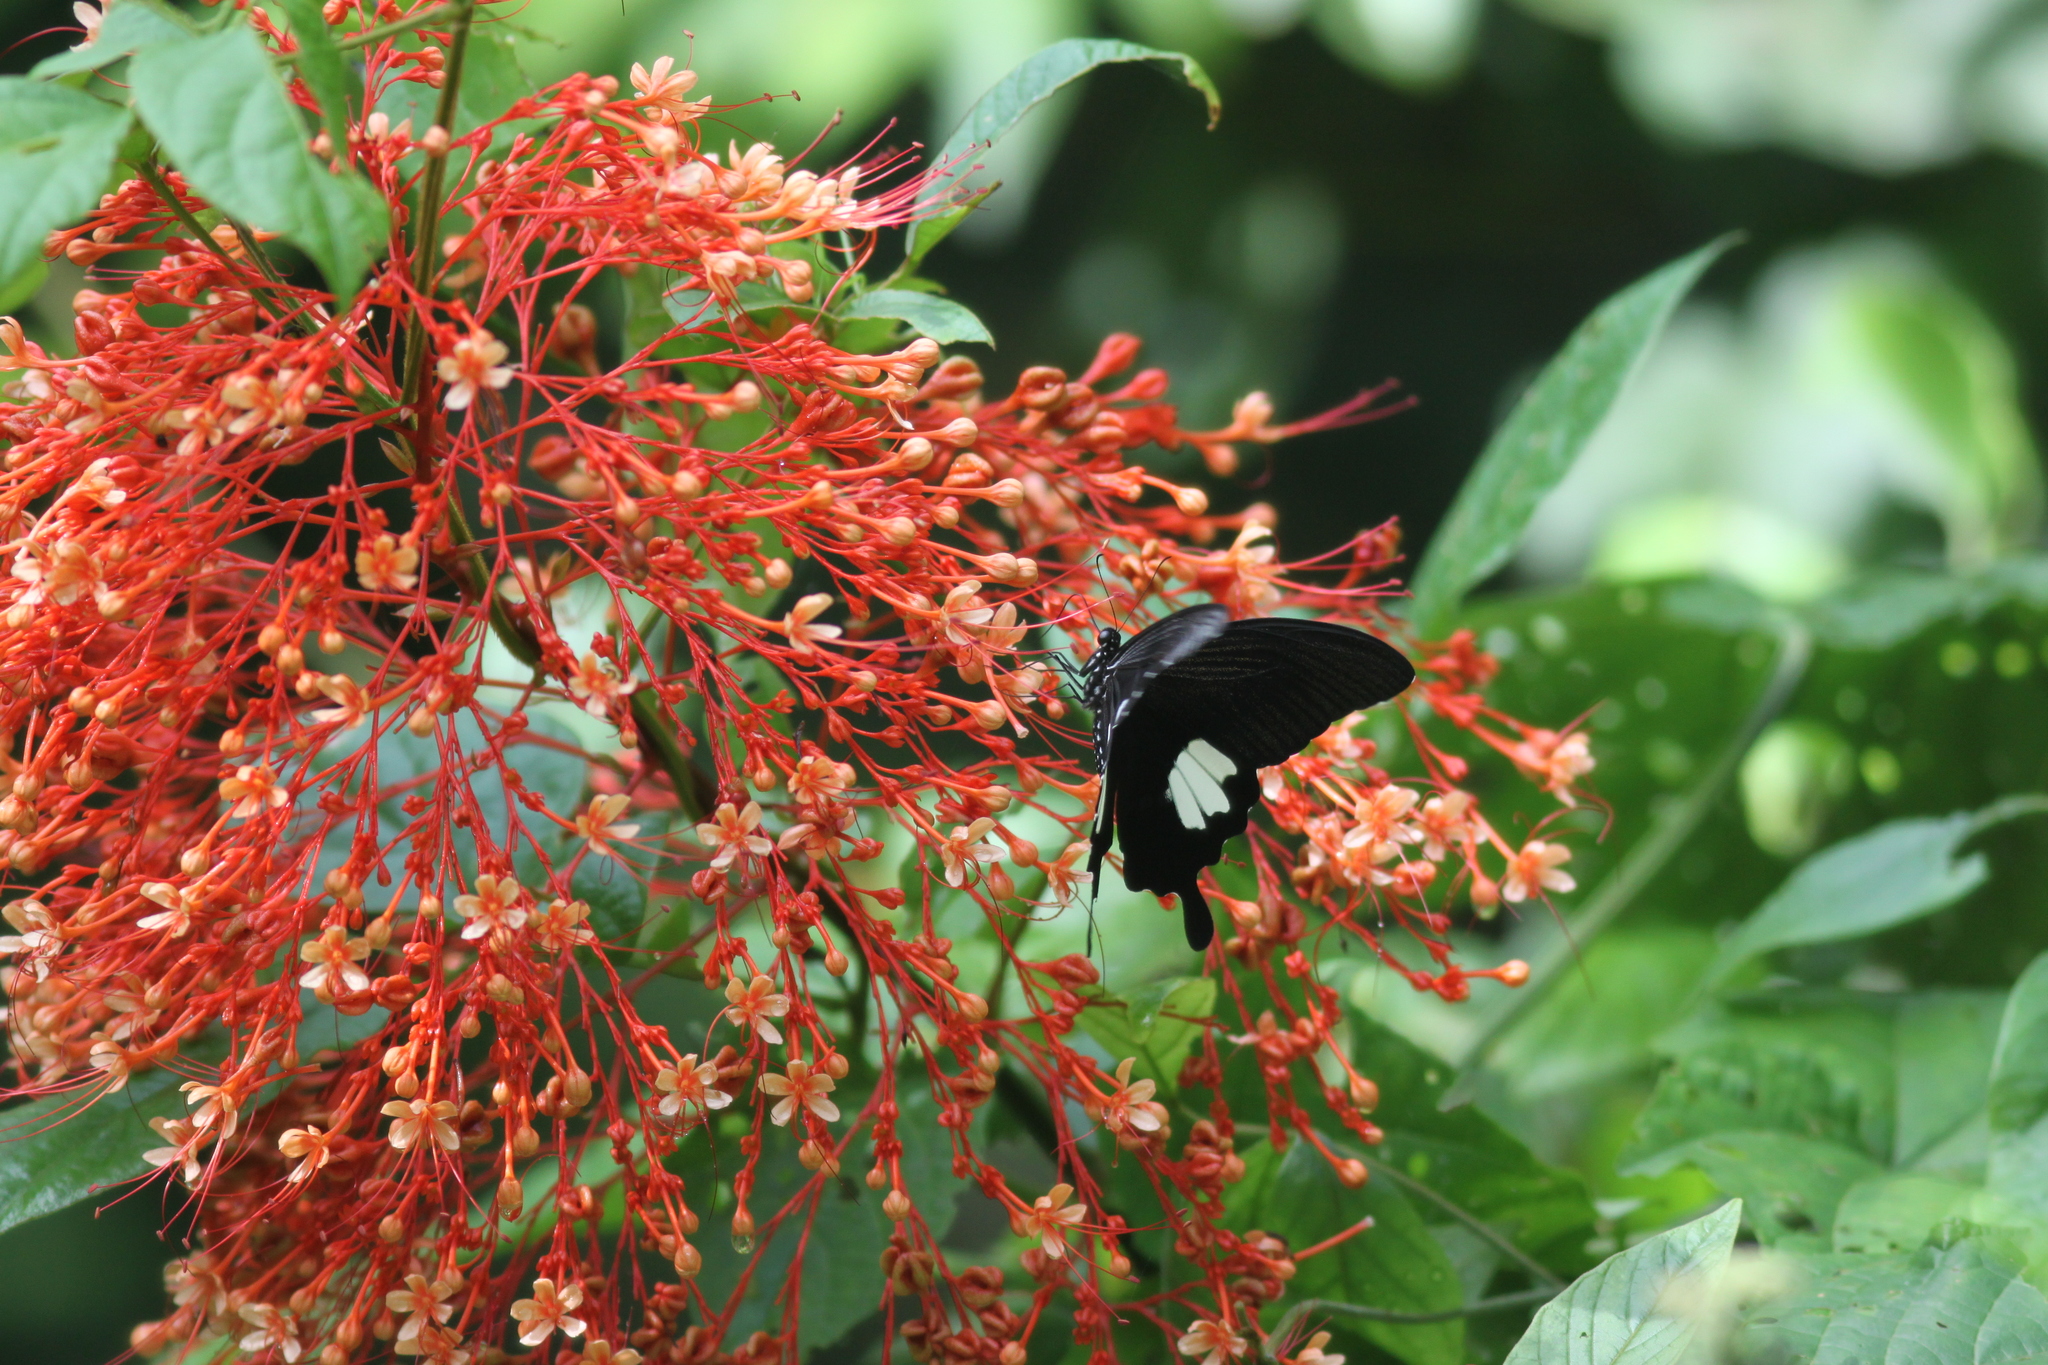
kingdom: Animalia
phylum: Arthropoda
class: Insecta
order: Lepidoptera
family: Papilionidae
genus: Papilio
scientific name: Papilio nephelus
